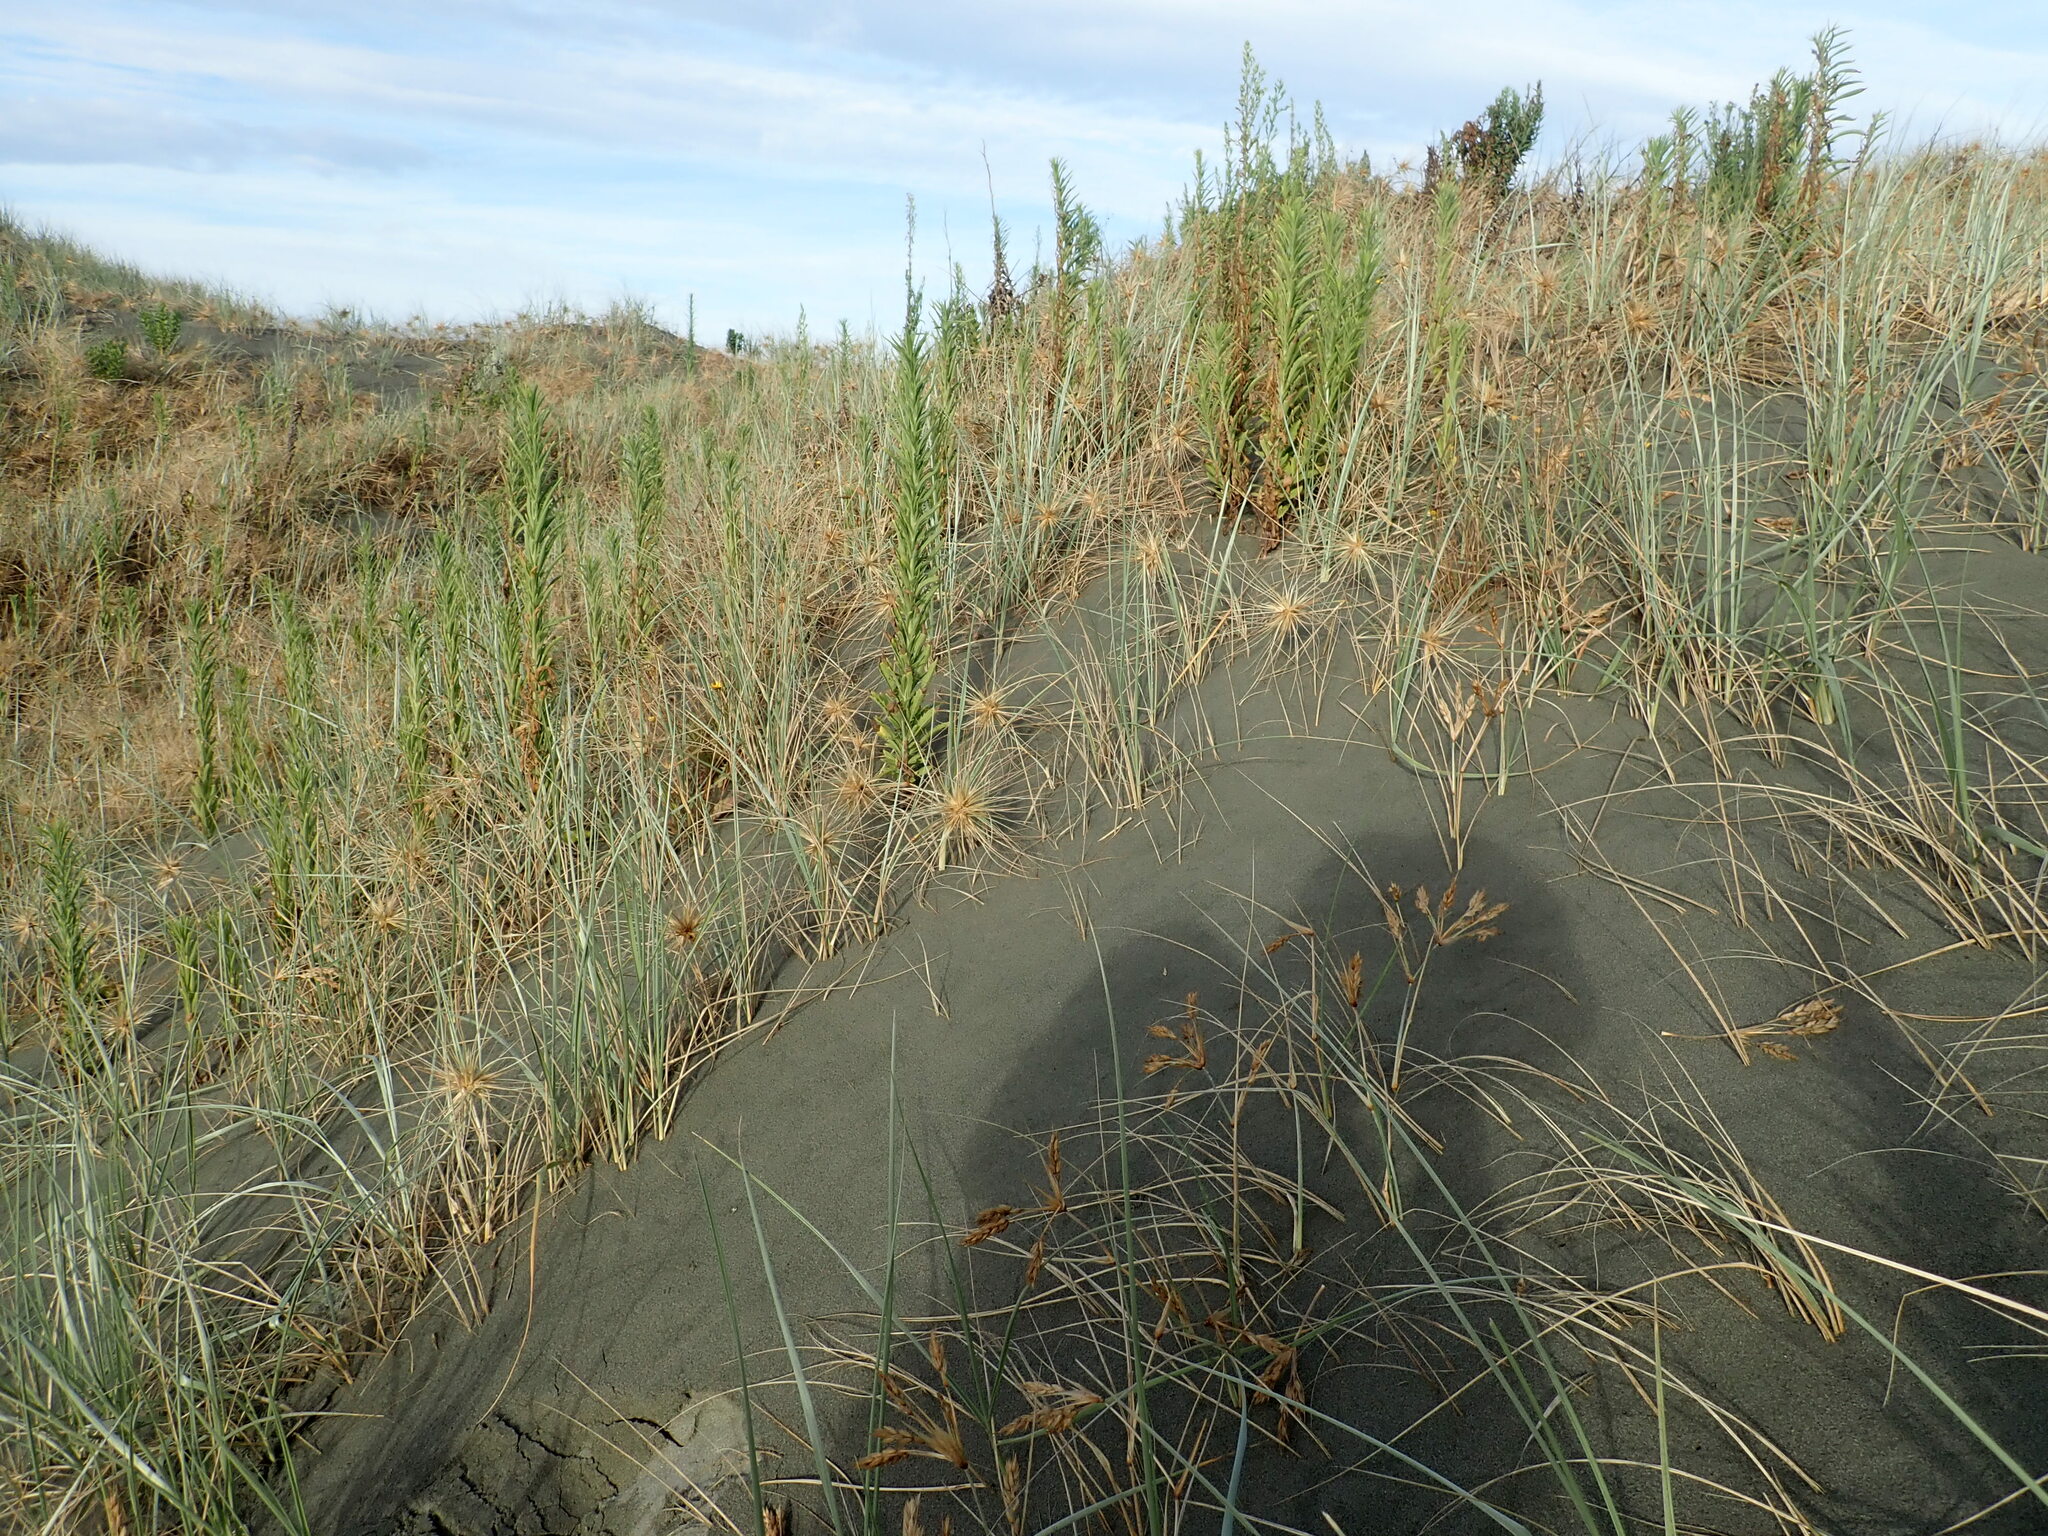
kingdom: Plantae
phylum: Tracheophyta
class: Magnoliopsida
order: Asterales
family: Asteraceae
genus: Erigeron
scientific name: Erigeron sumatrensis
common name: Daisy
